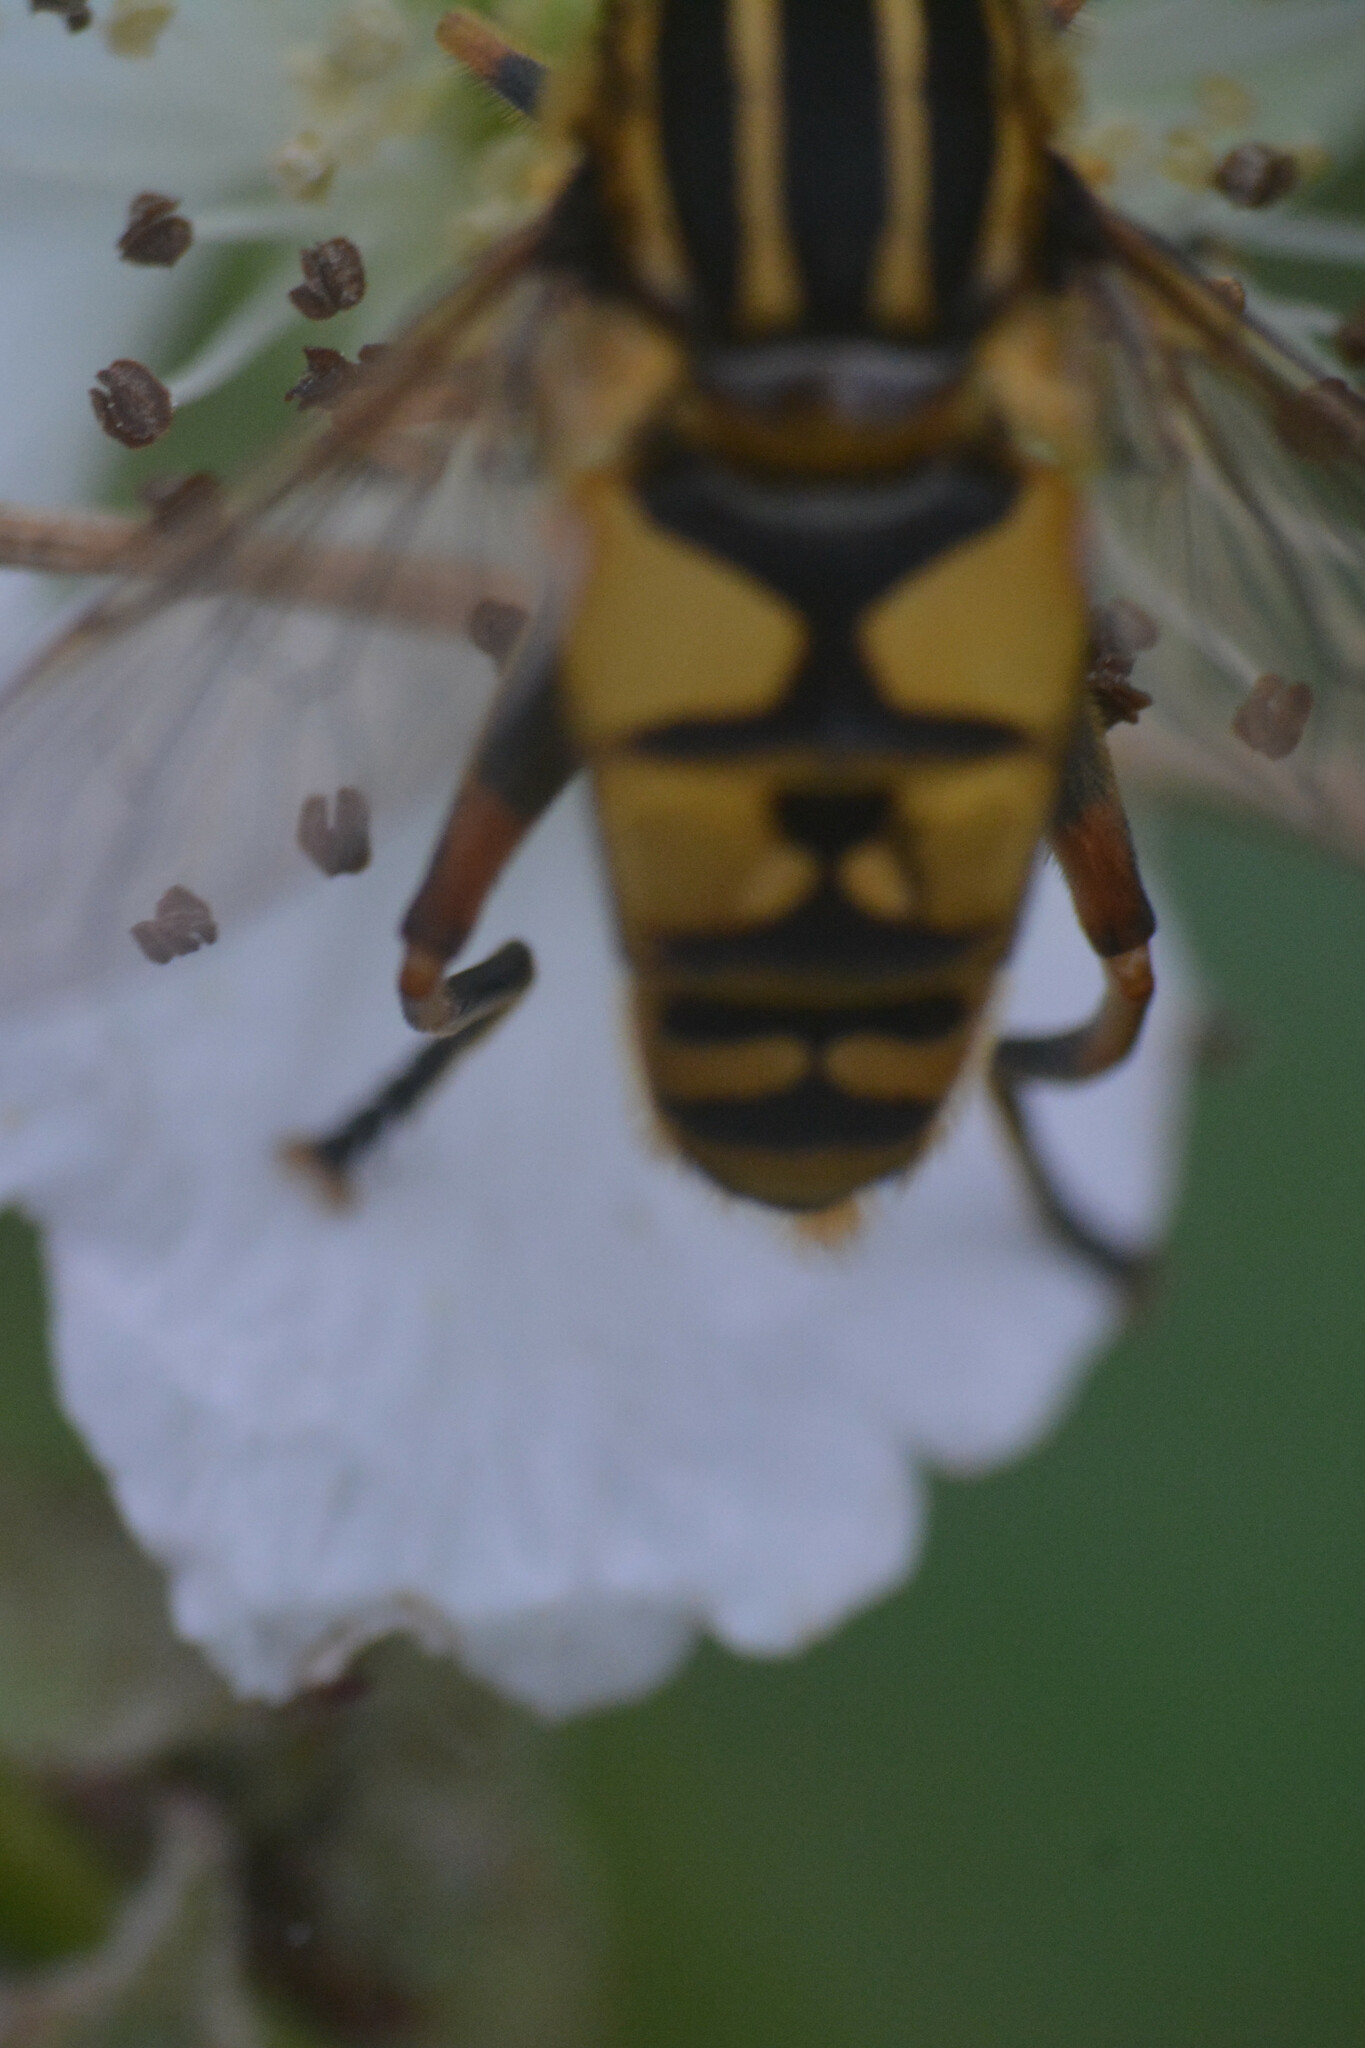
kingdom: Animalia
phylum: Arthropoda
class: Insecta
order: Diptera
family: Syrphidae
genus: Helophilus
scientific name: Helophilus pendulus
